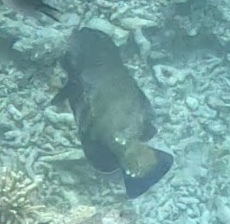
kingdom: Animalia
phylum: Chordata
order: Perciformes
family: Serranidae
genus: Cephalopholis
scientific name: Cephalopholis argus
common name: Peacock grouper
